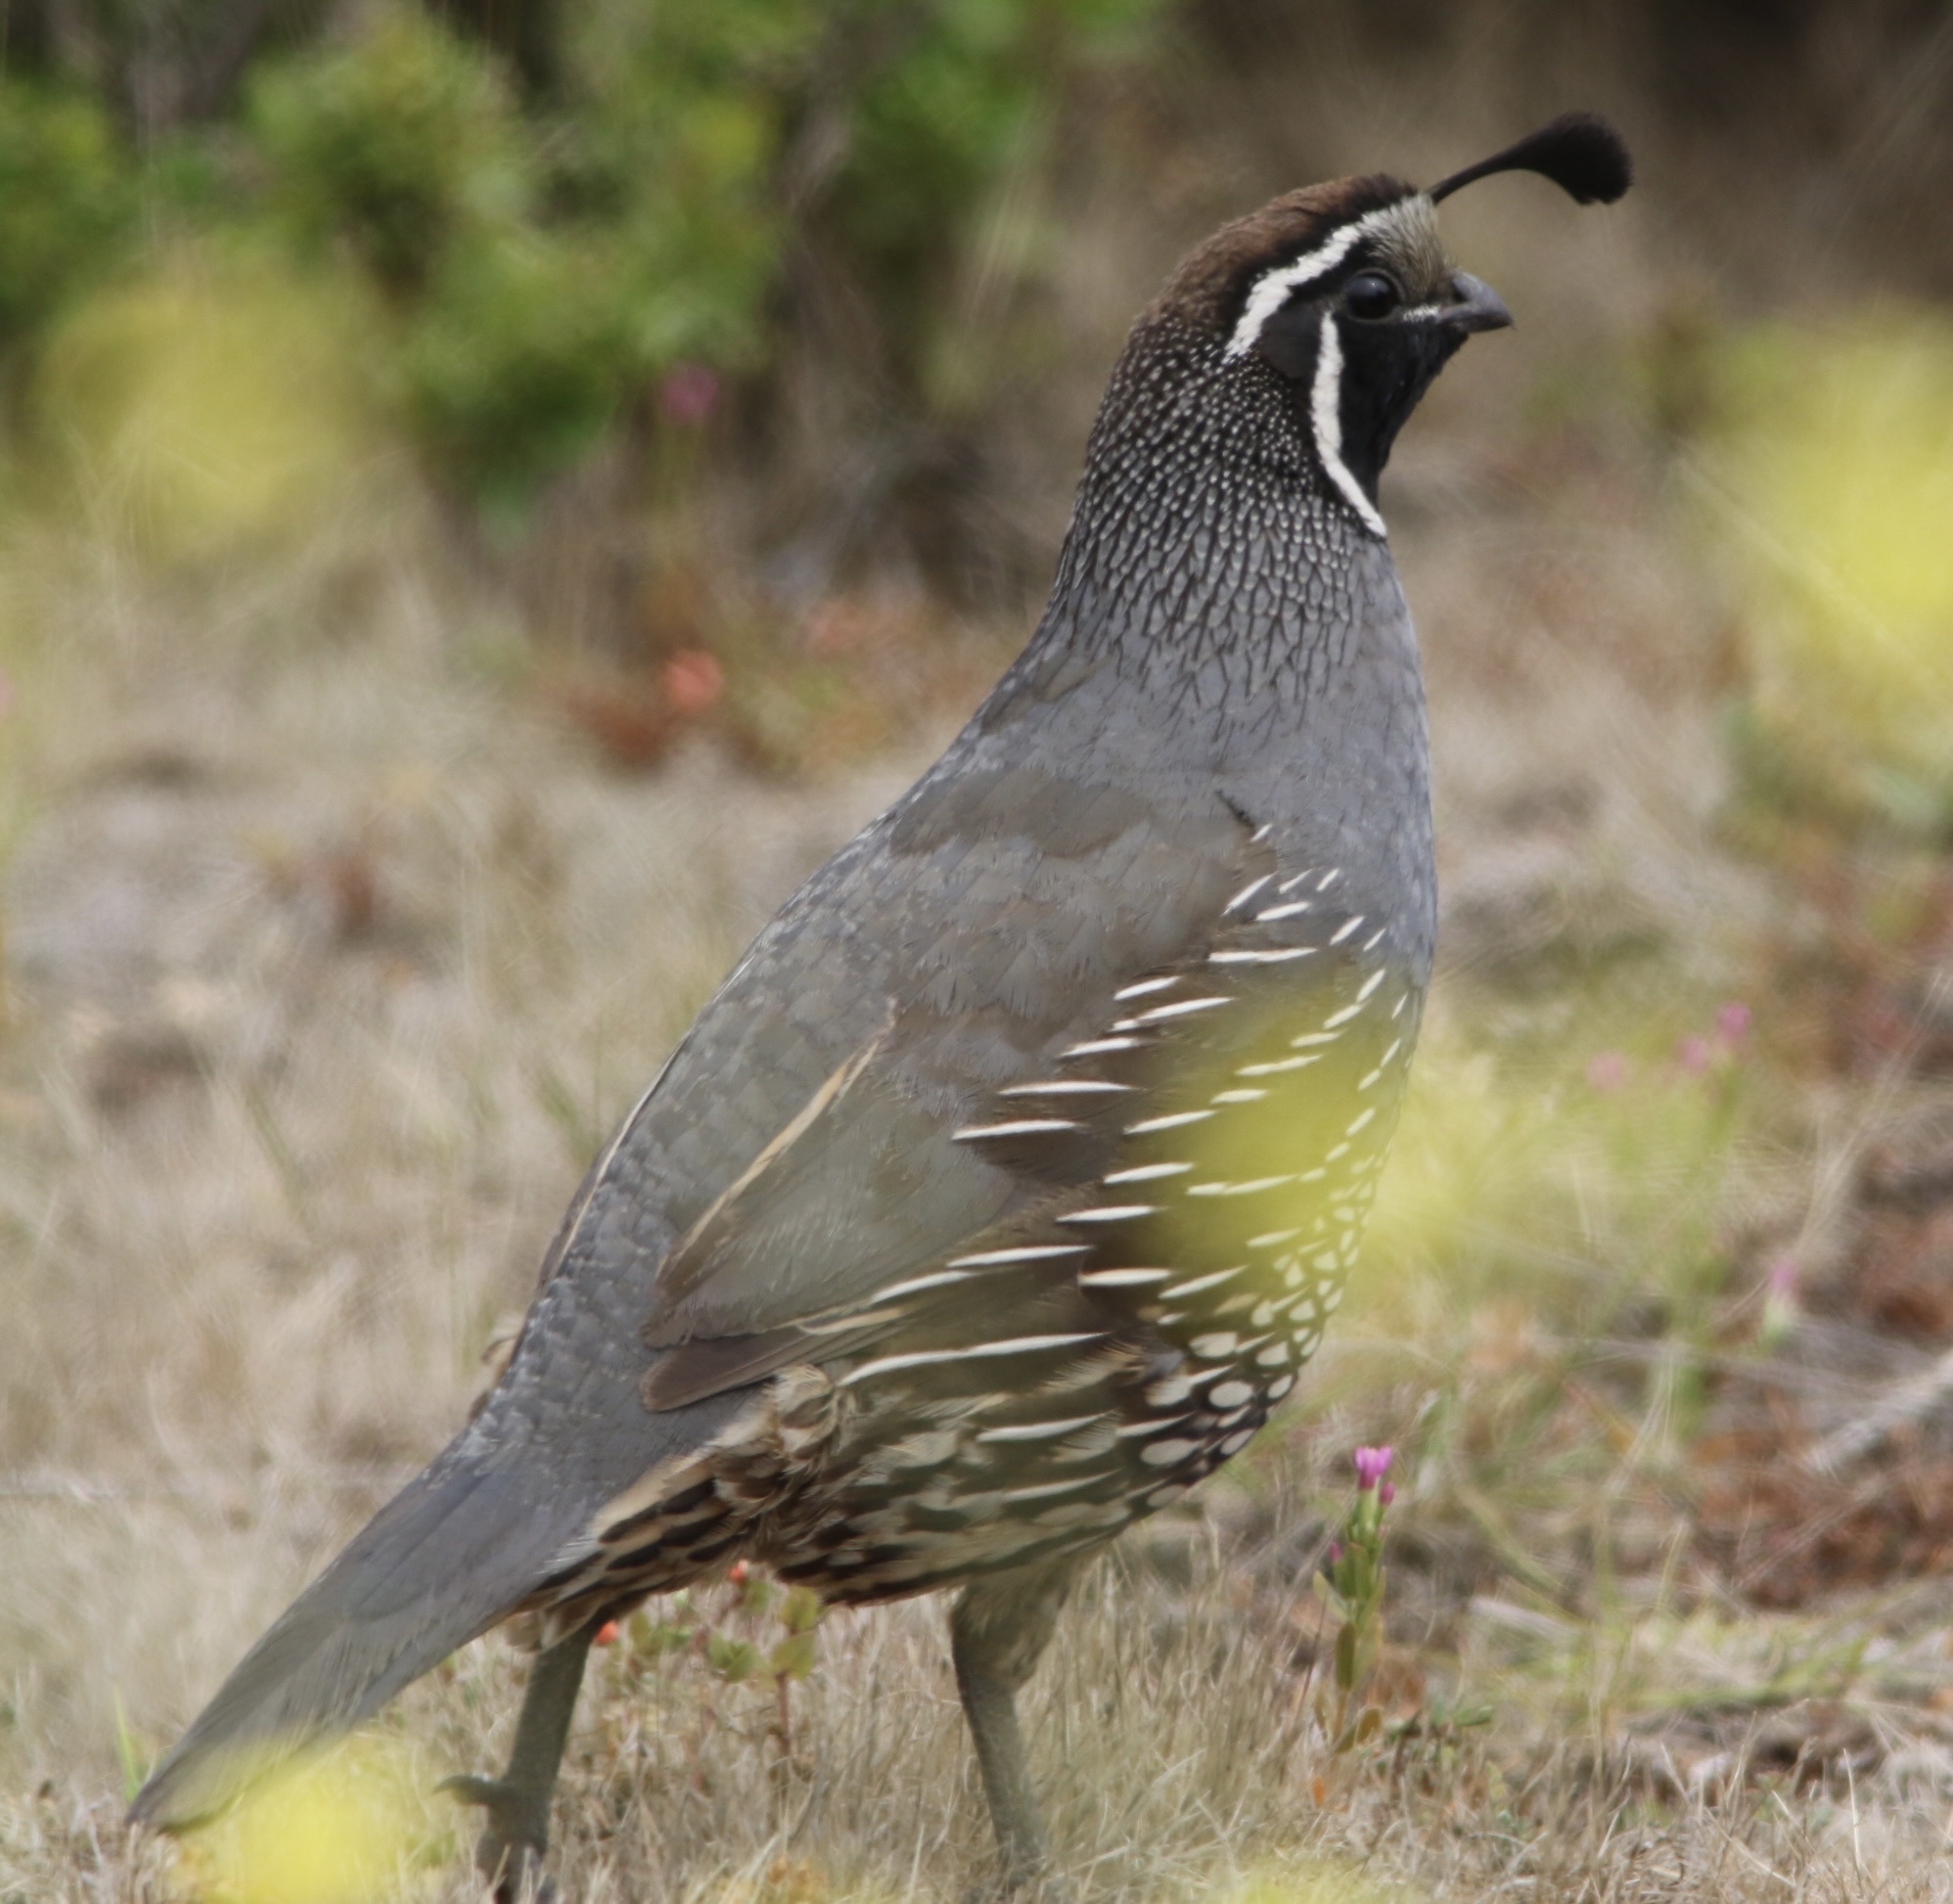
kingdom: Animalia
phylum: Chordata
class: Aves
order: Galliformes
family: Odontophoridae
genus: Callipepla
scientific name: Callipepla californica
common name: California quail
